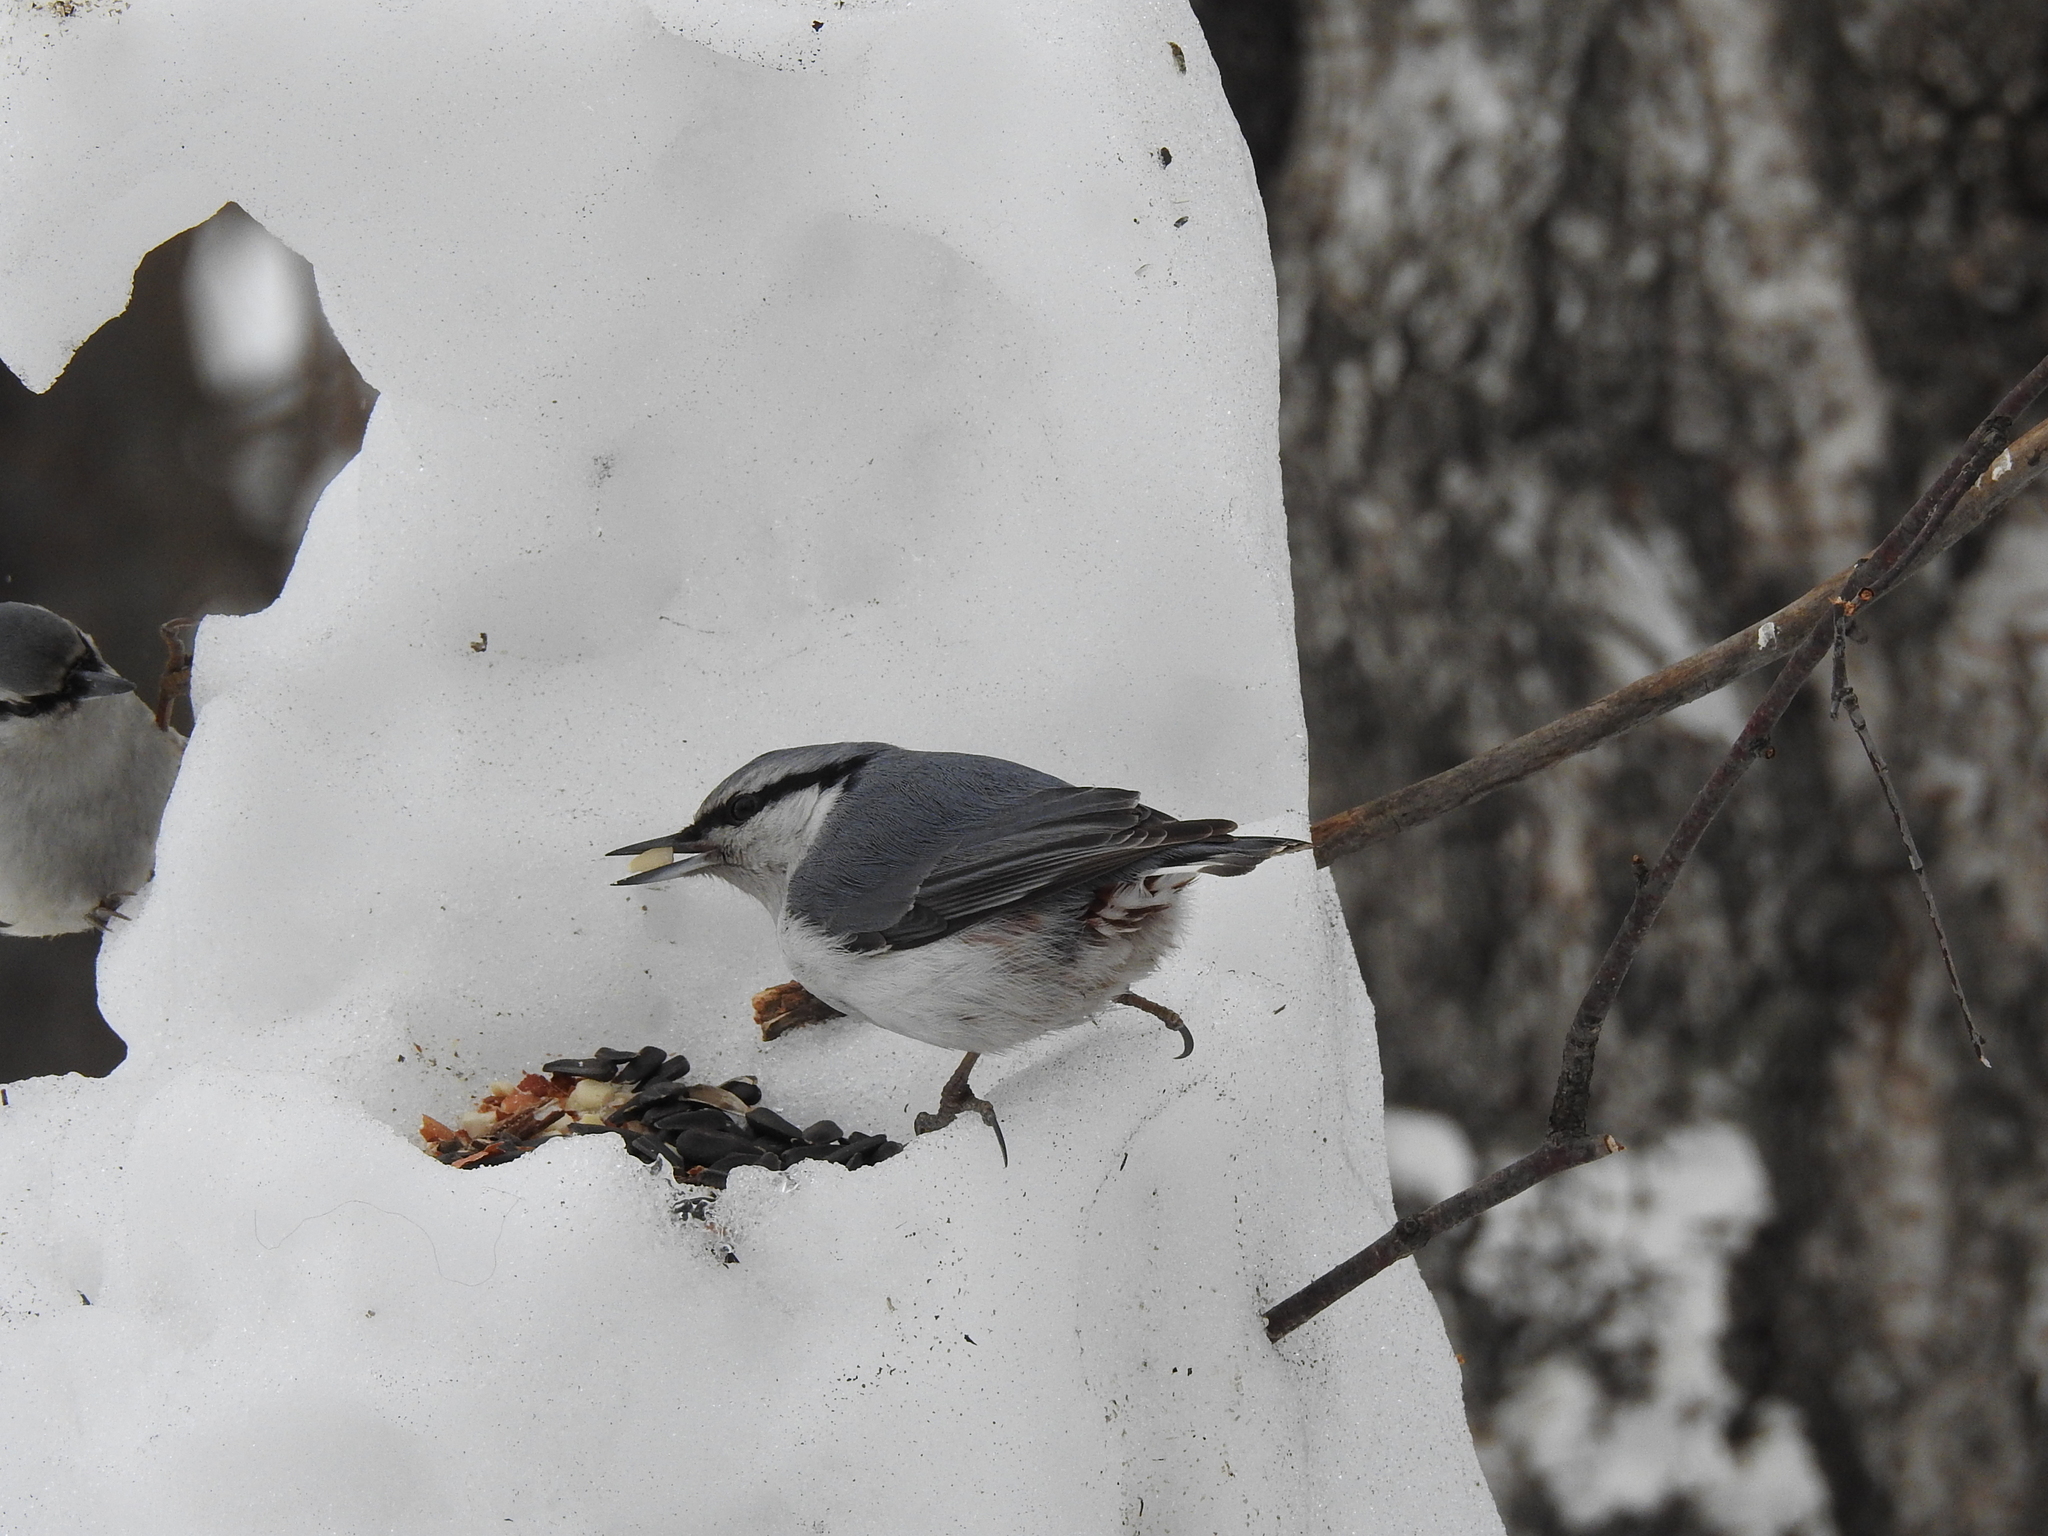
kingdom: Animalia
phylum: Chordata
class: Aves
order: Passeriformes
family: Sittidae
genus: Sitta
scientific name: Sitta europaea
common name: Eurasian nuthatch
